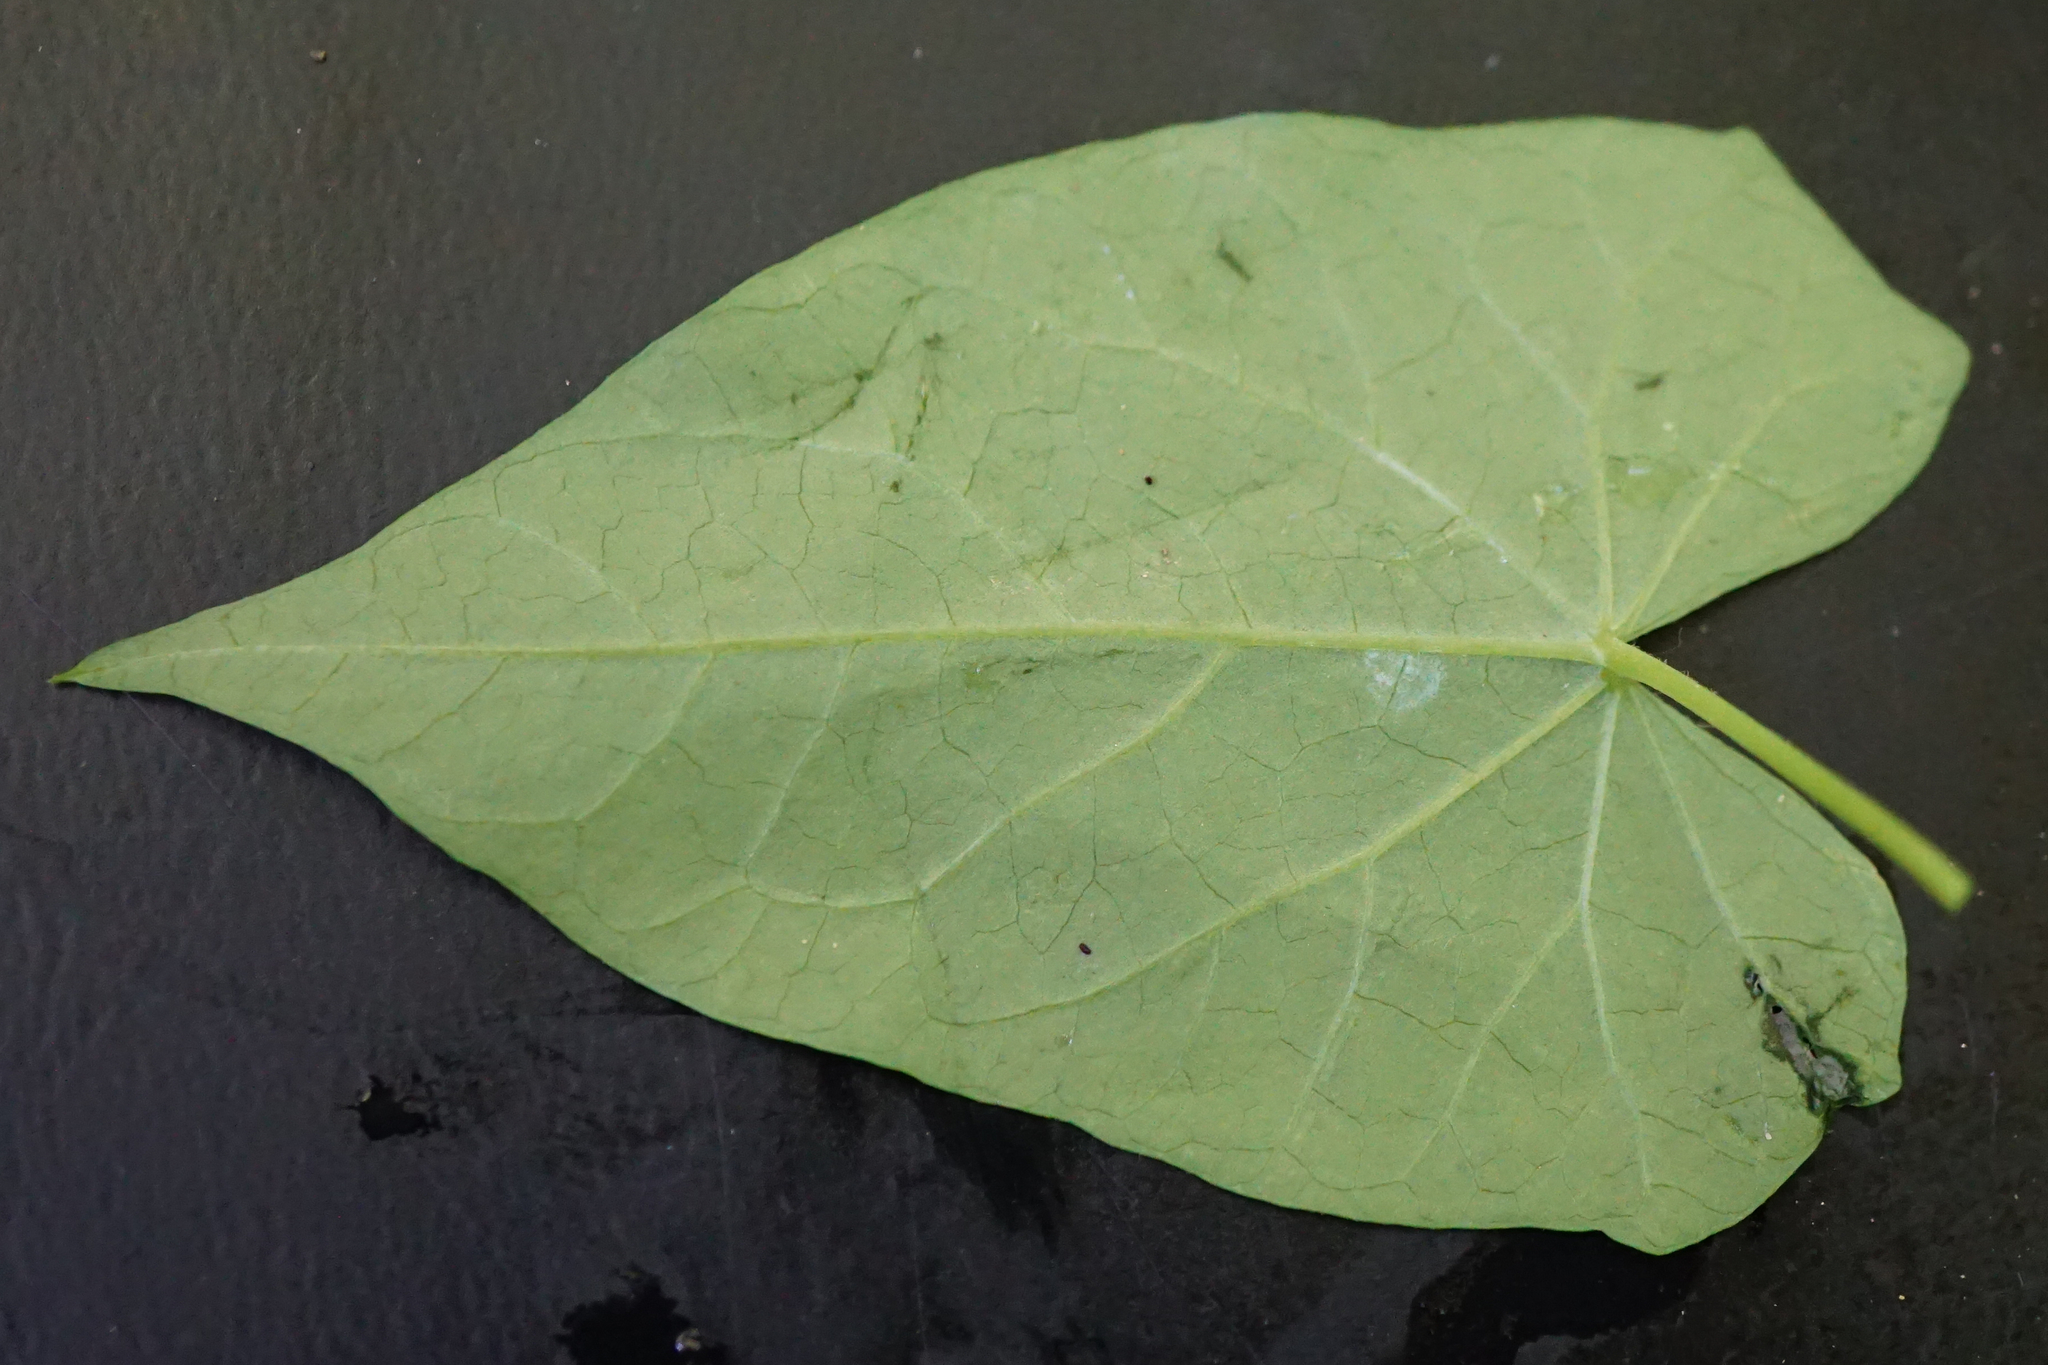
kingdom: Plantae
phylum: Tracheophyta
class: Magnoliopsida
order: Solanales
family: Convolvulaceae
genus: Calystegia
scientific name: Calystegia sepium
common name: Hedge bindweed
